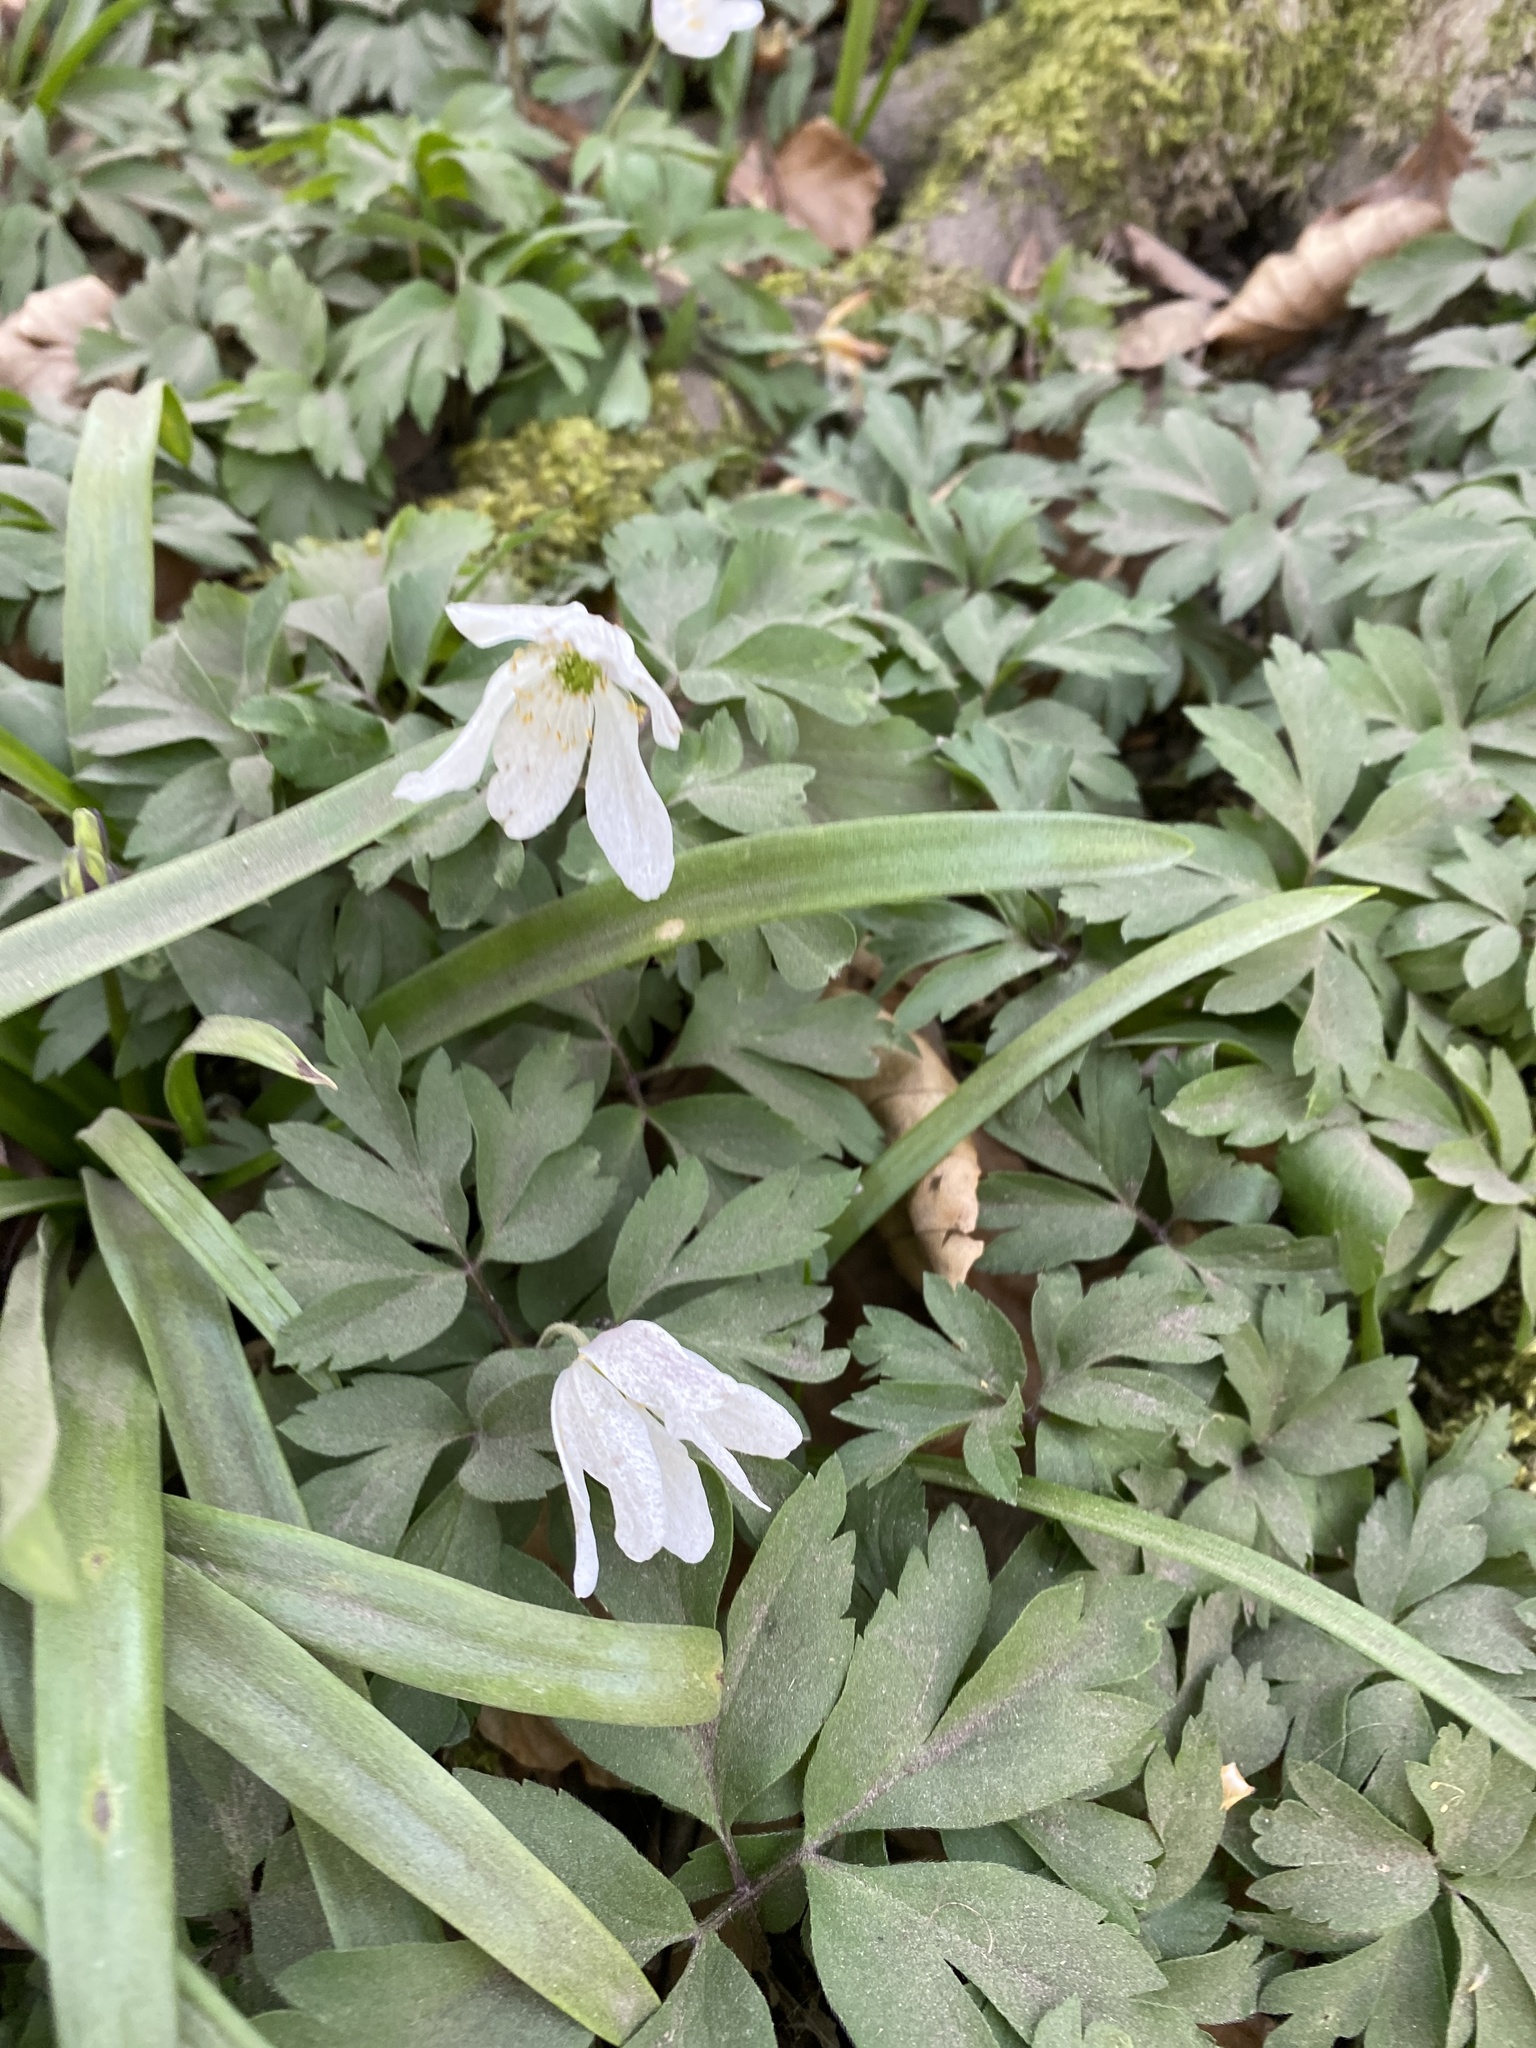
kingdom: Plantae
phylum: Tracheophyta
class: Magnoliopsida
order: Ranunculales
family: Ranunculaceae
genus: Anemone
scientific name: Anemone nemorosa
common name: Wood anemone
